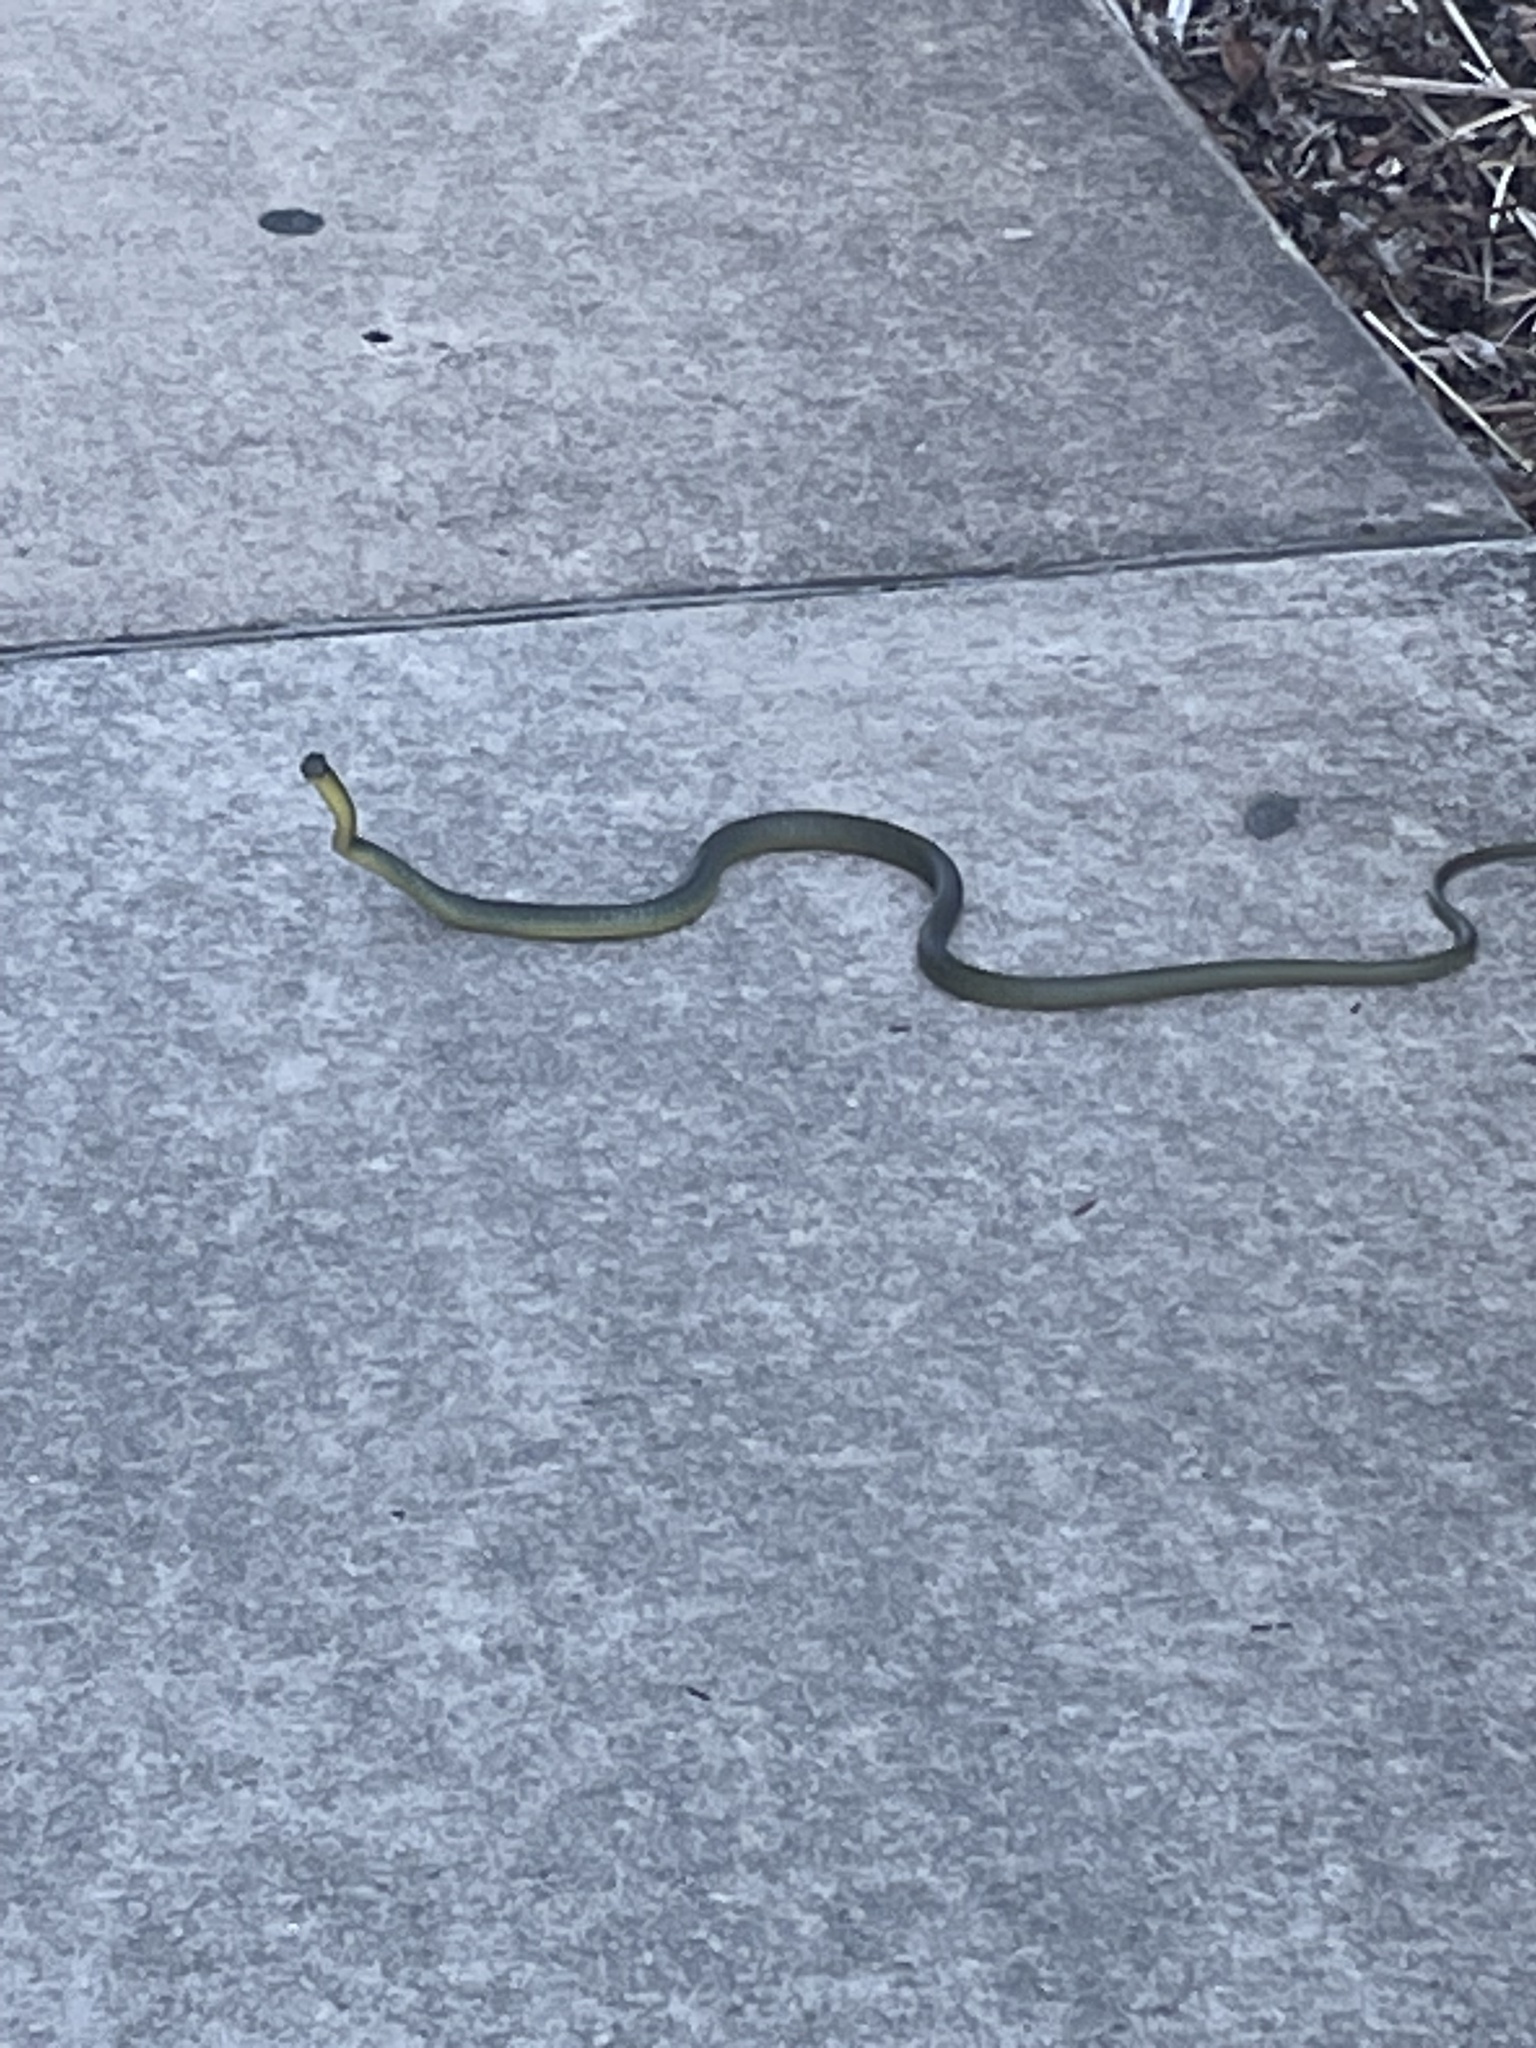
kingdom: Animalia
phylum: Chordata
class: Squamata
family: Colubridae
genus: Dendrelaphis
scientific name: Dendrelaphis punctulatus
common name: Common tree snake
